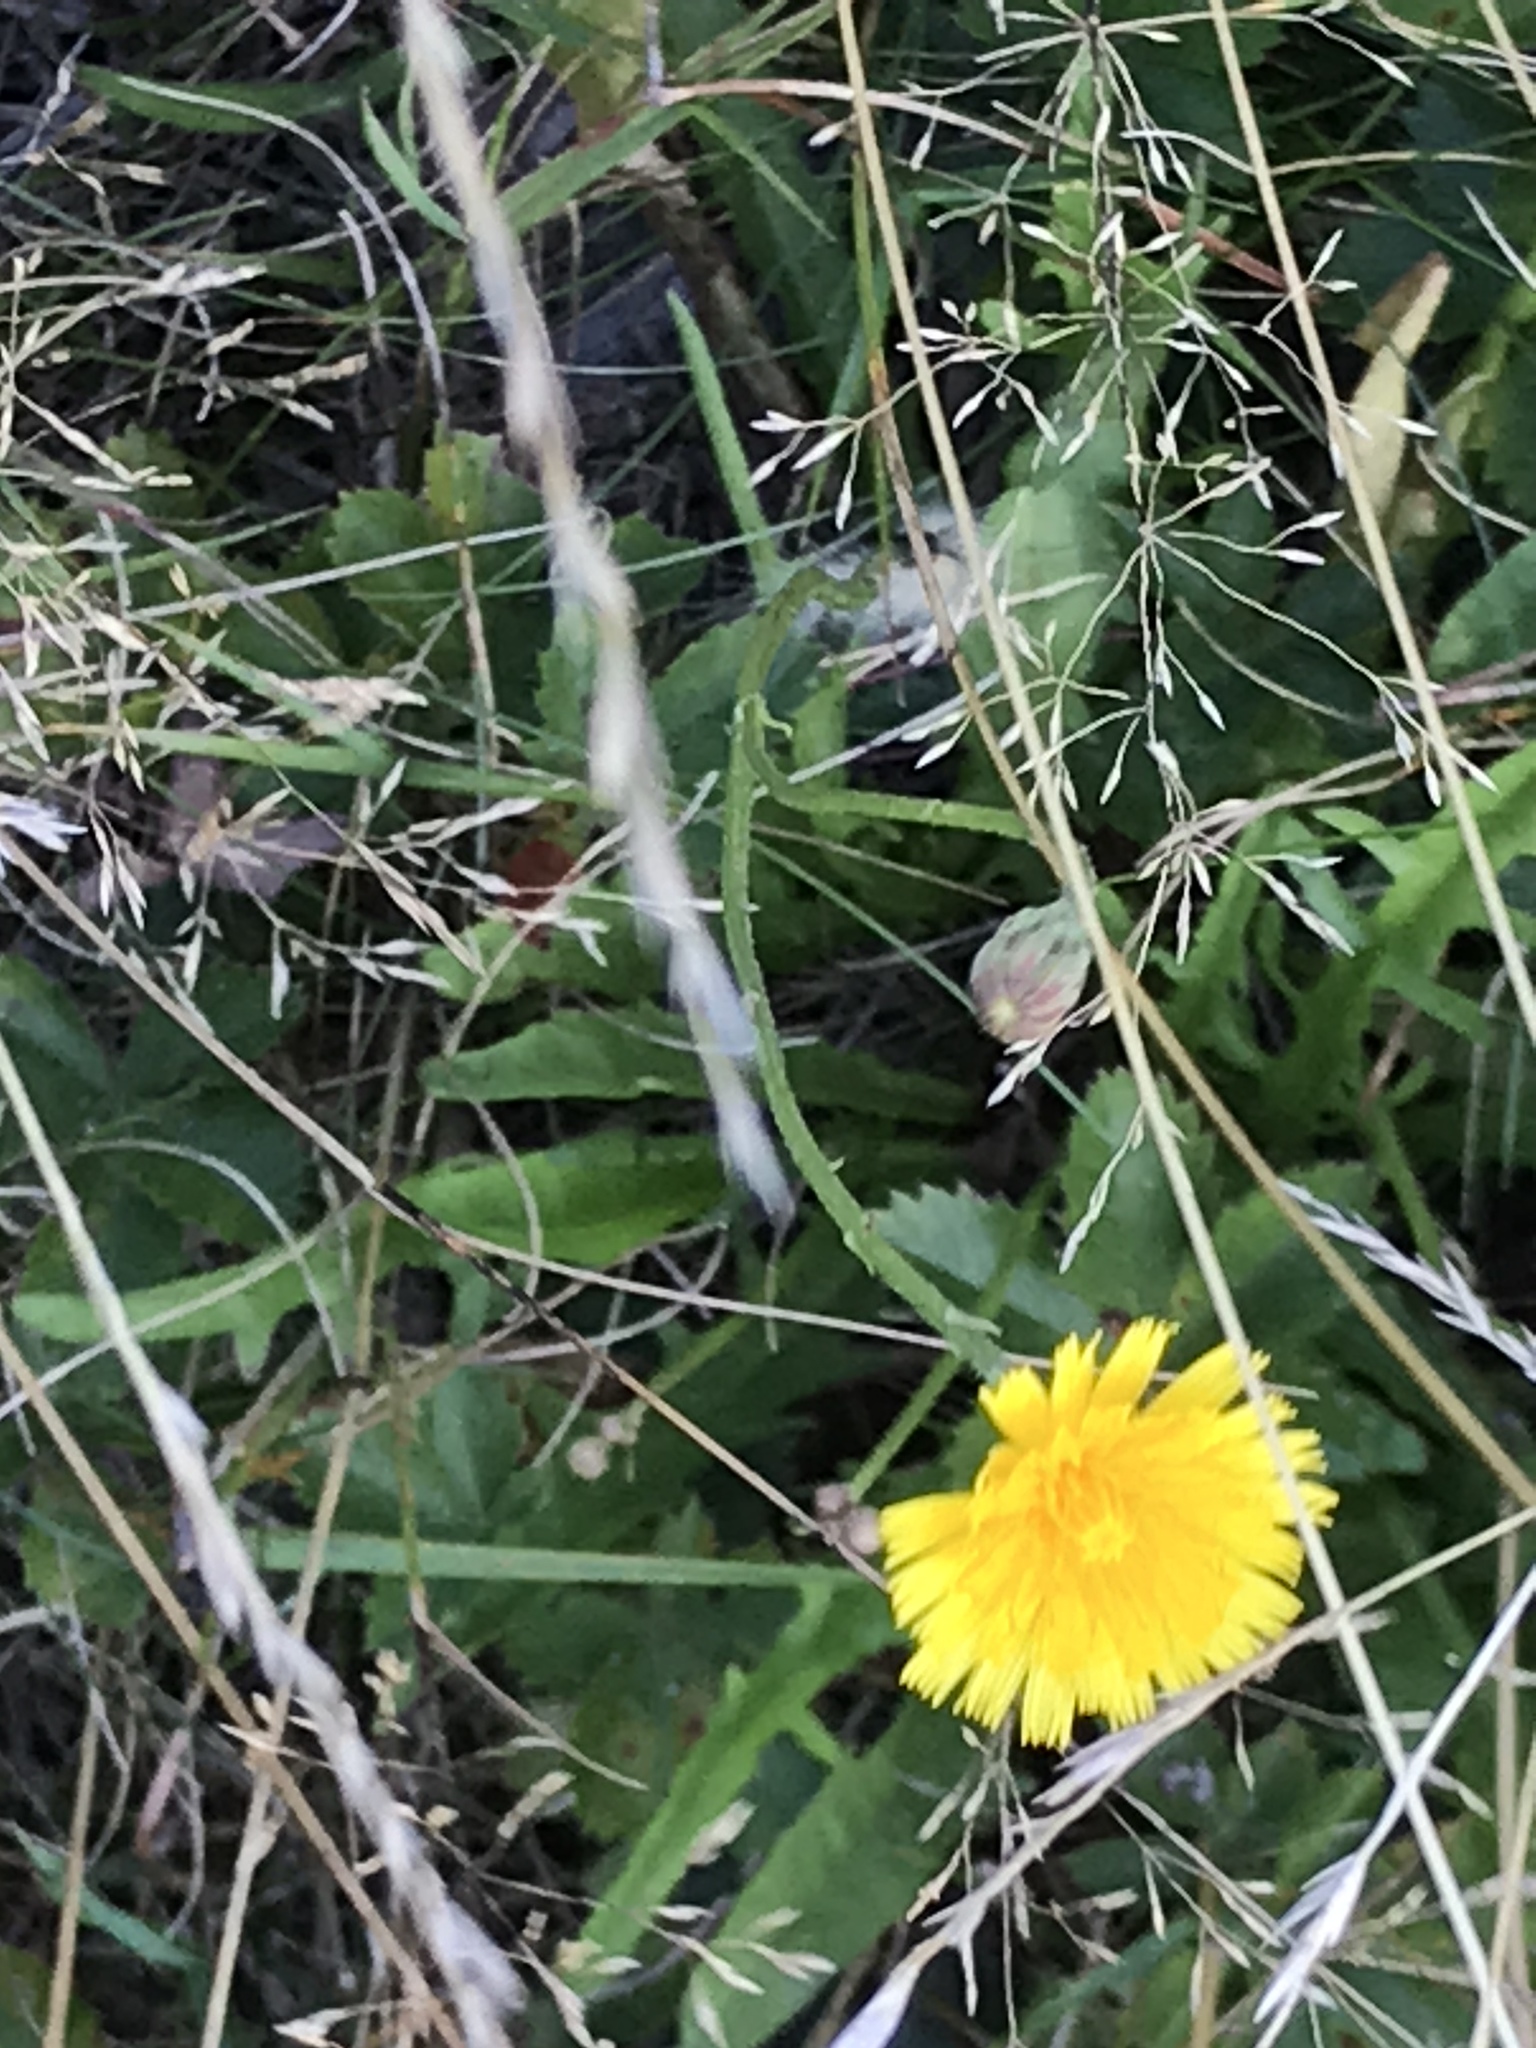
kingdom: Plantae
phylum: Tracheophyta
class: Magnoliopsida
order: Asterales
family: Asteraceae
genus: Scorzoneroides
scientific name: Scorzoneroides autumnalis
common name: Autumn hawkbit
